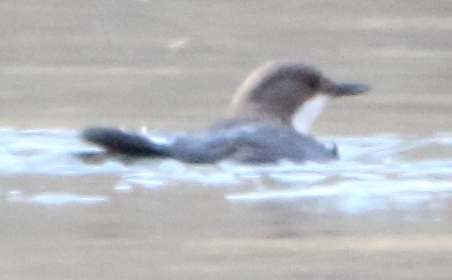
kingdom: Animalia
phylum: Chordata
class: Aves
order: Passeriformes
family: Cinclidae
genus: Cinclus
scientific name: Cinclus cinclus
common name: White-throated dipper
